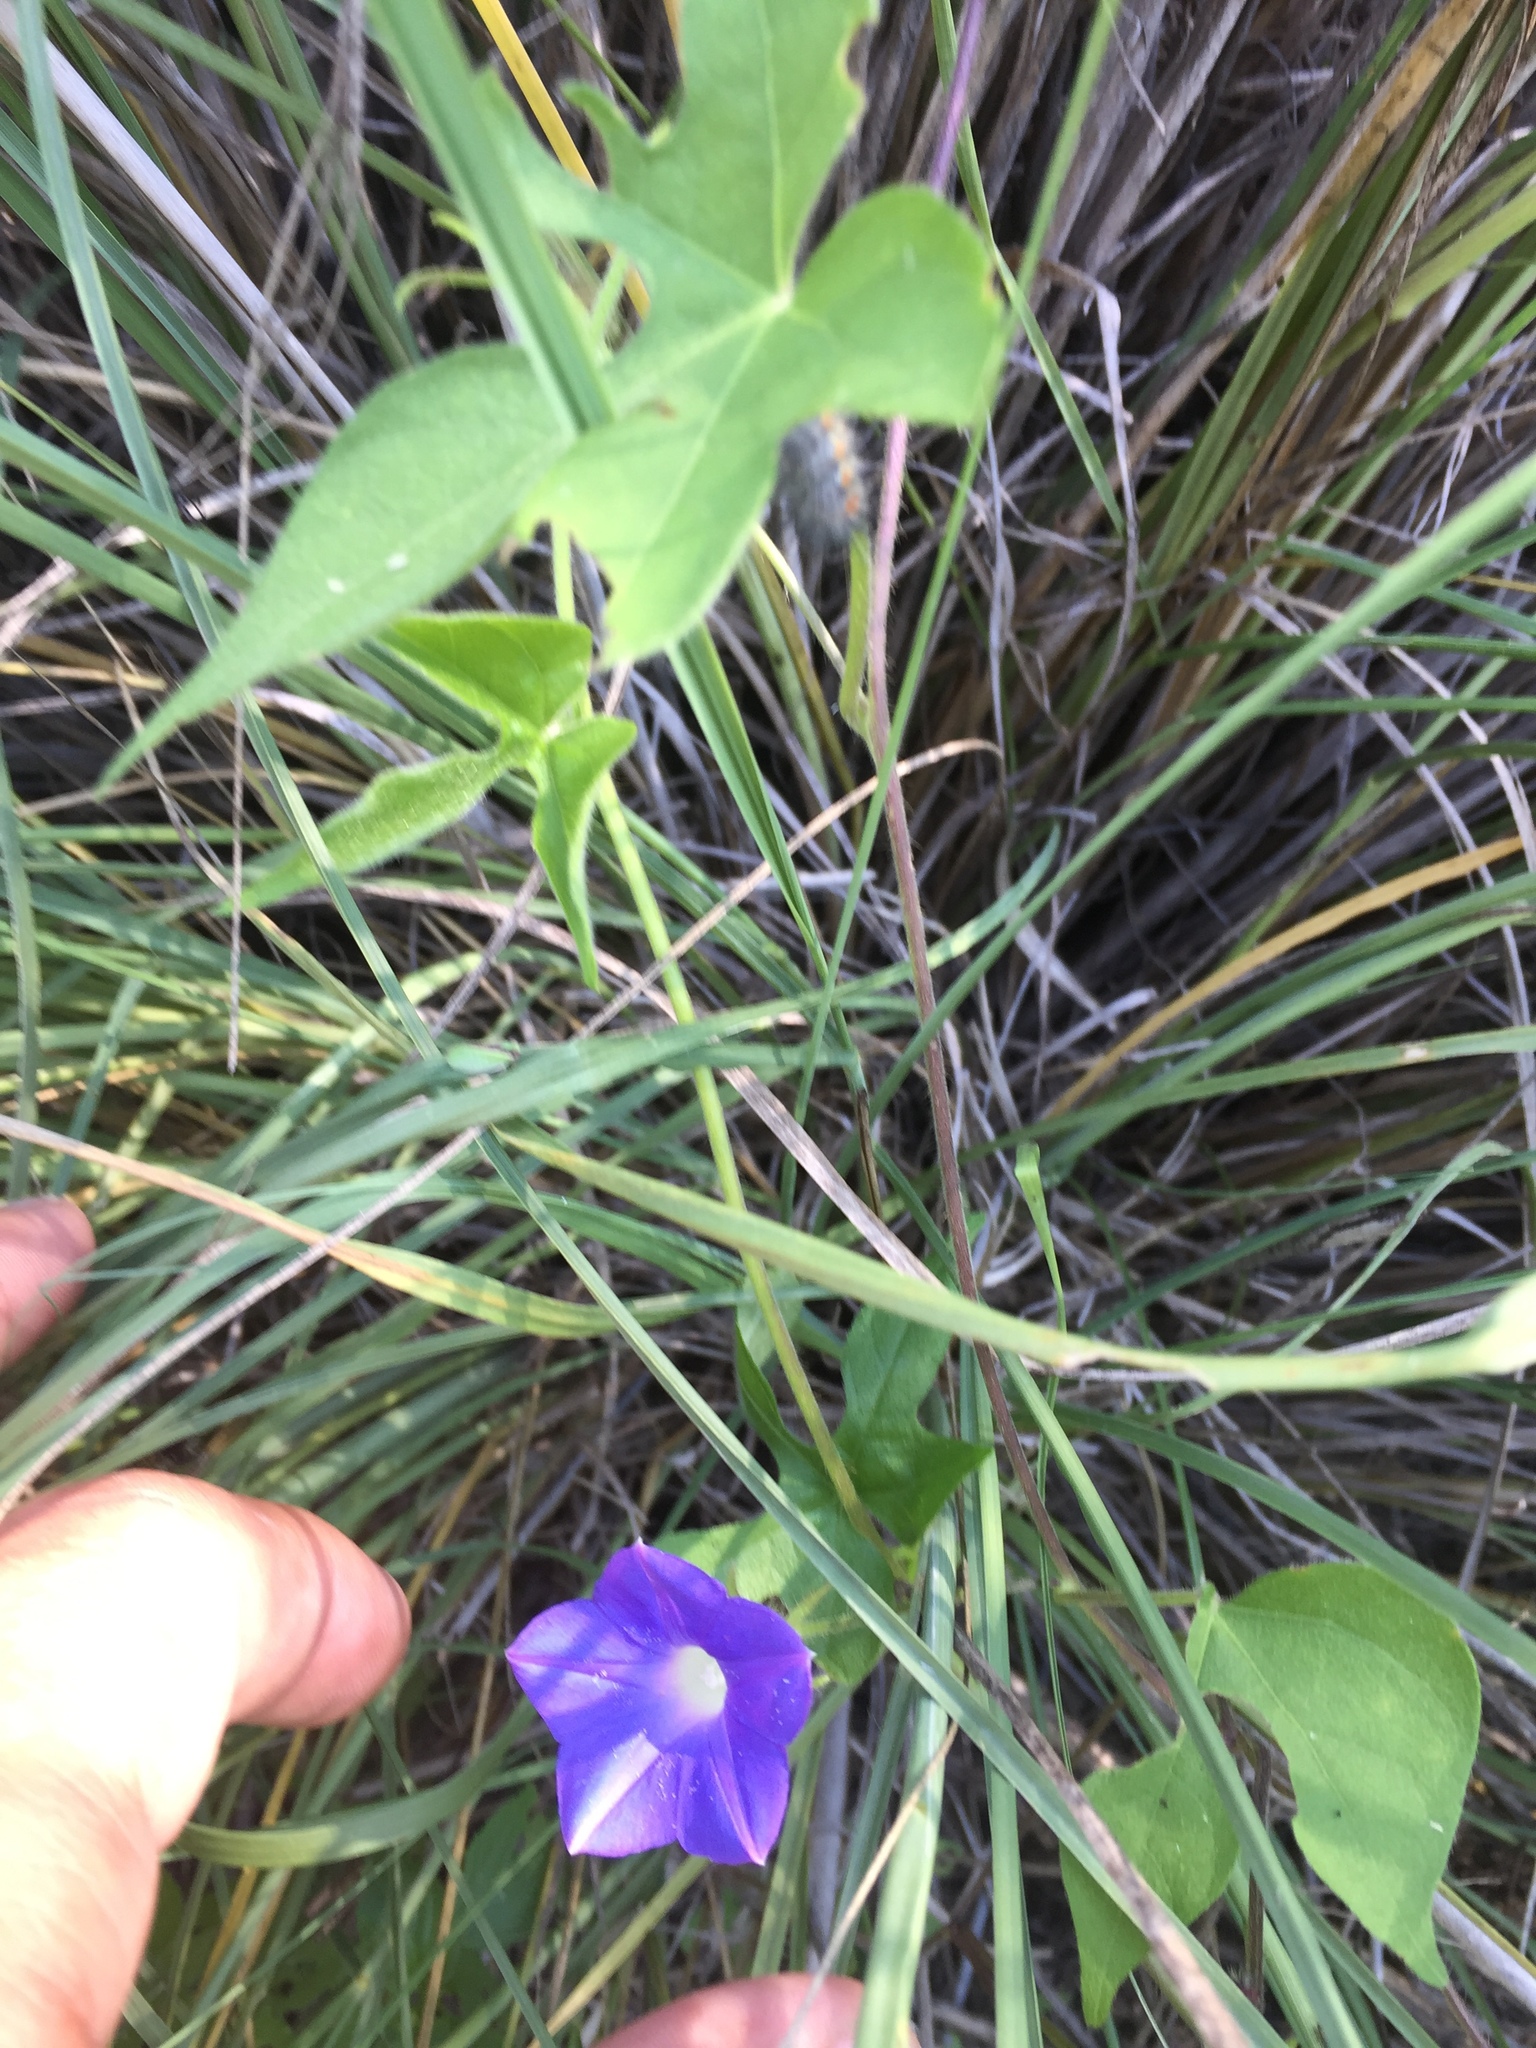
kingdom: Plantae
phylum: Tracheophyta
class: Magnoliopsida
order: Solanales
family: Convolvulaceae
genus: Ipomoea
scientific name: Ipomoea hederacea
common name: Ivy-leaved morning-glory
